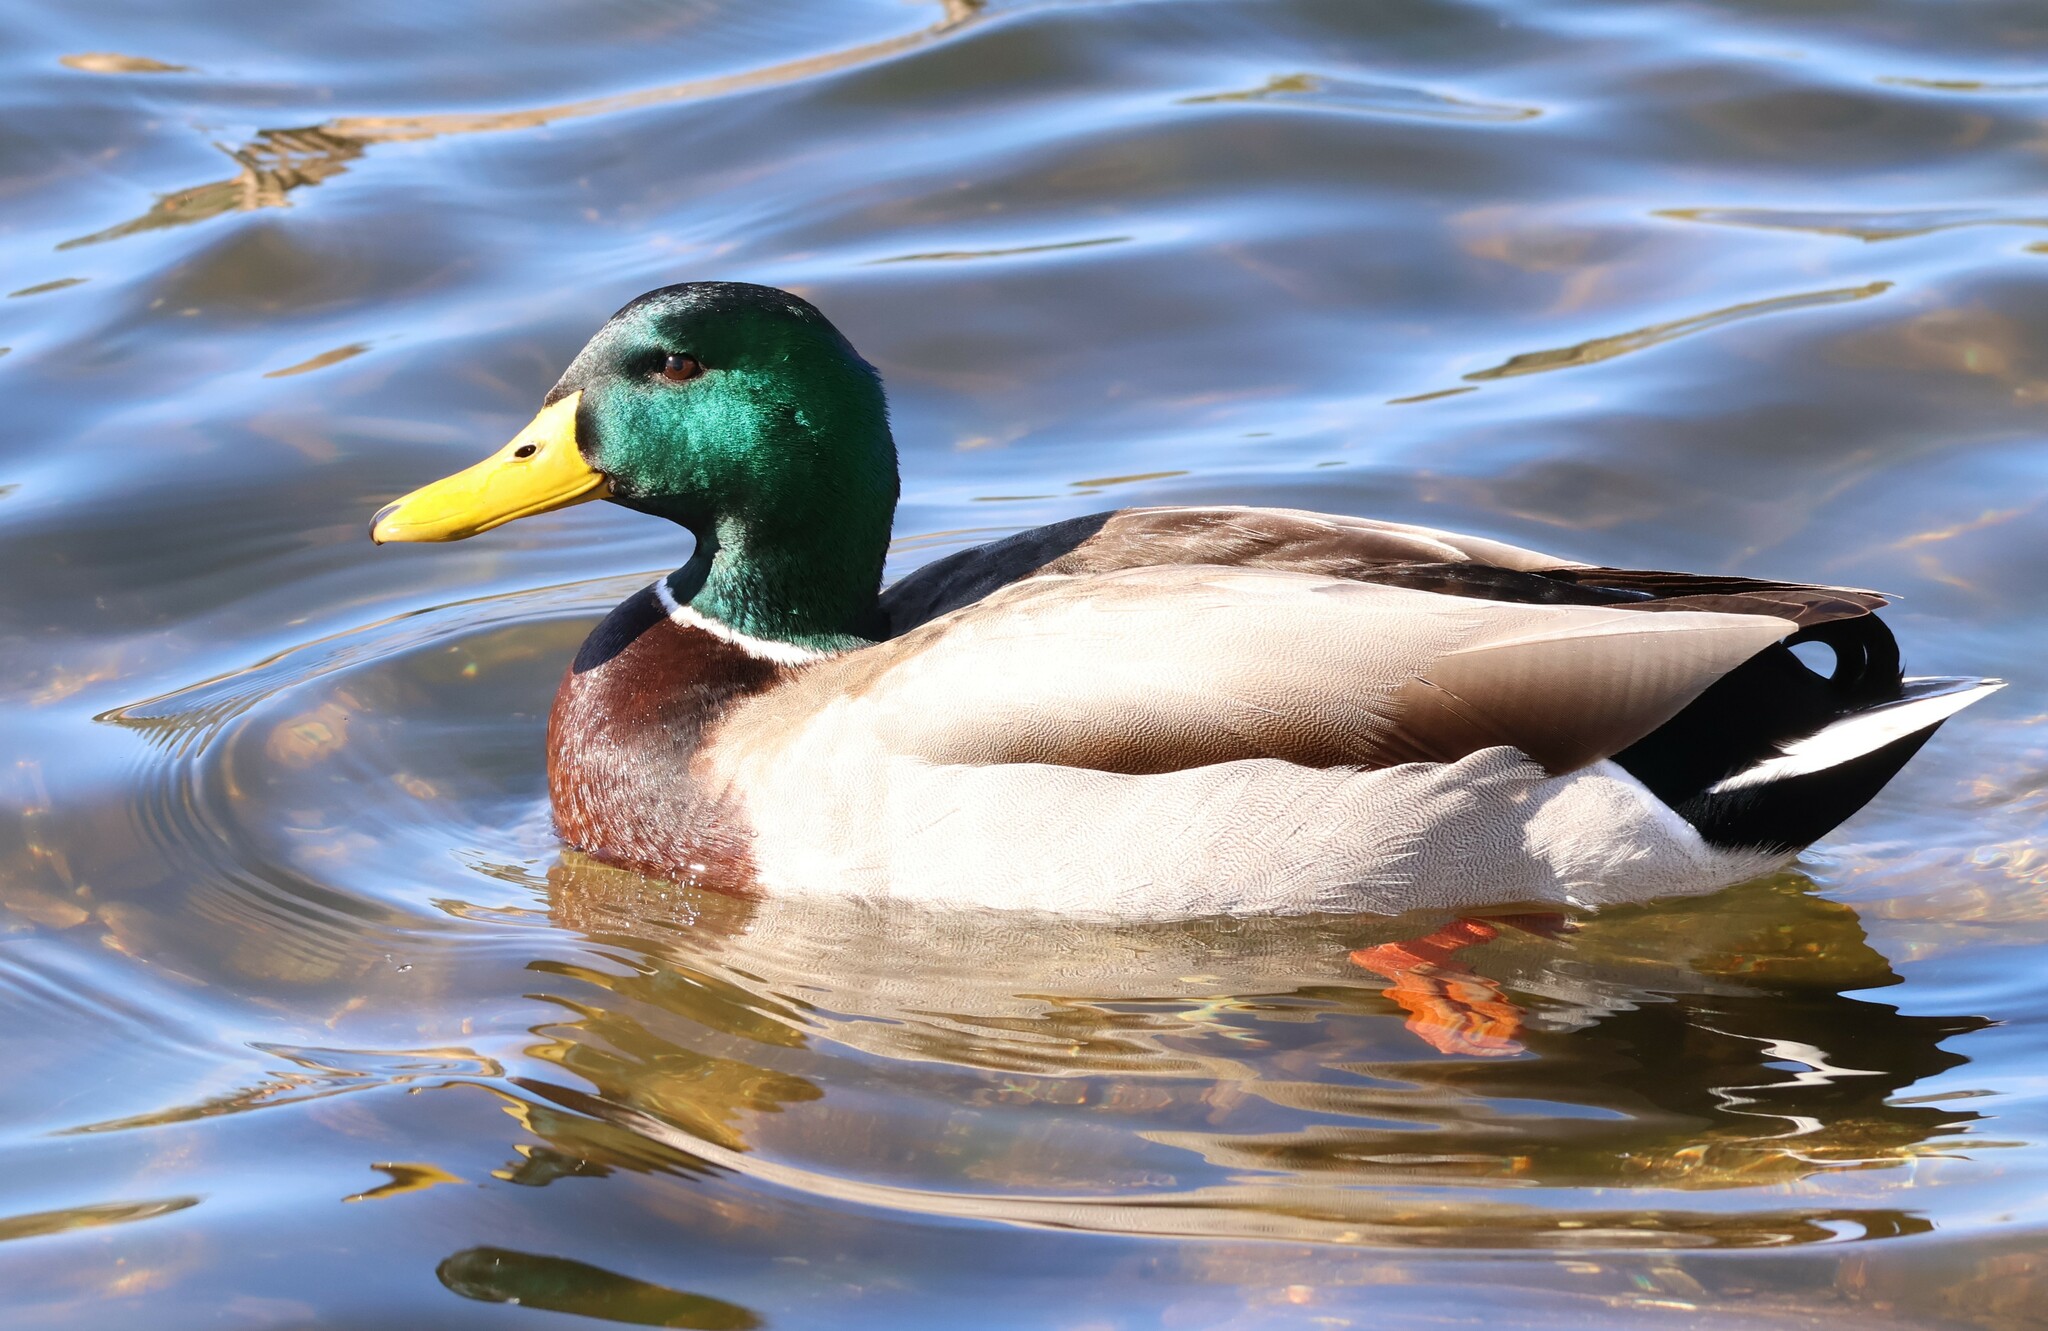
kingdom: Animalia
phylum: Chordata
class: Aves
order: Anseriformes
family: Anatidae
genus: Anas
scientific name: Anas platyrhynchos
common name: Mallard
